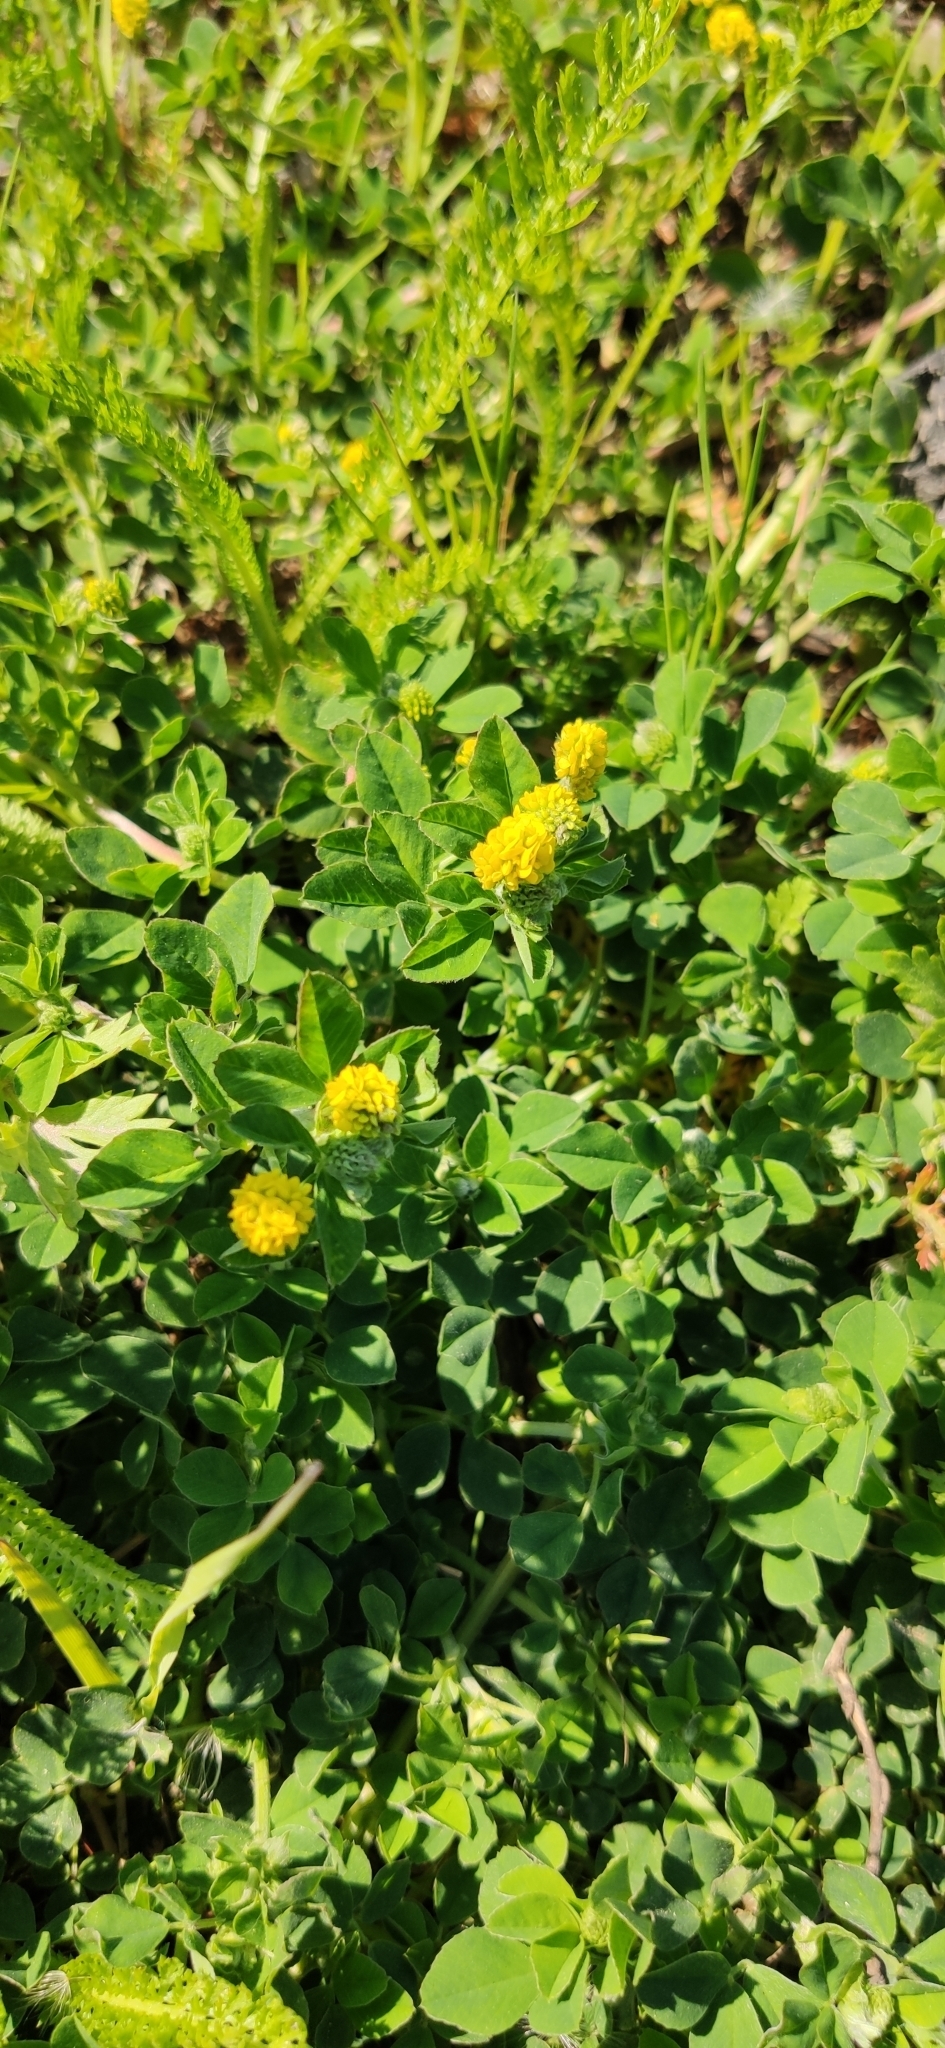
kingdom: Plantae
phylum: Tracheophyta
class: Magnoliopsida
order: Fabales
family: Fabaceae
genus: Medicago
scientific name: Medicago lupulina
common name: Black medick
